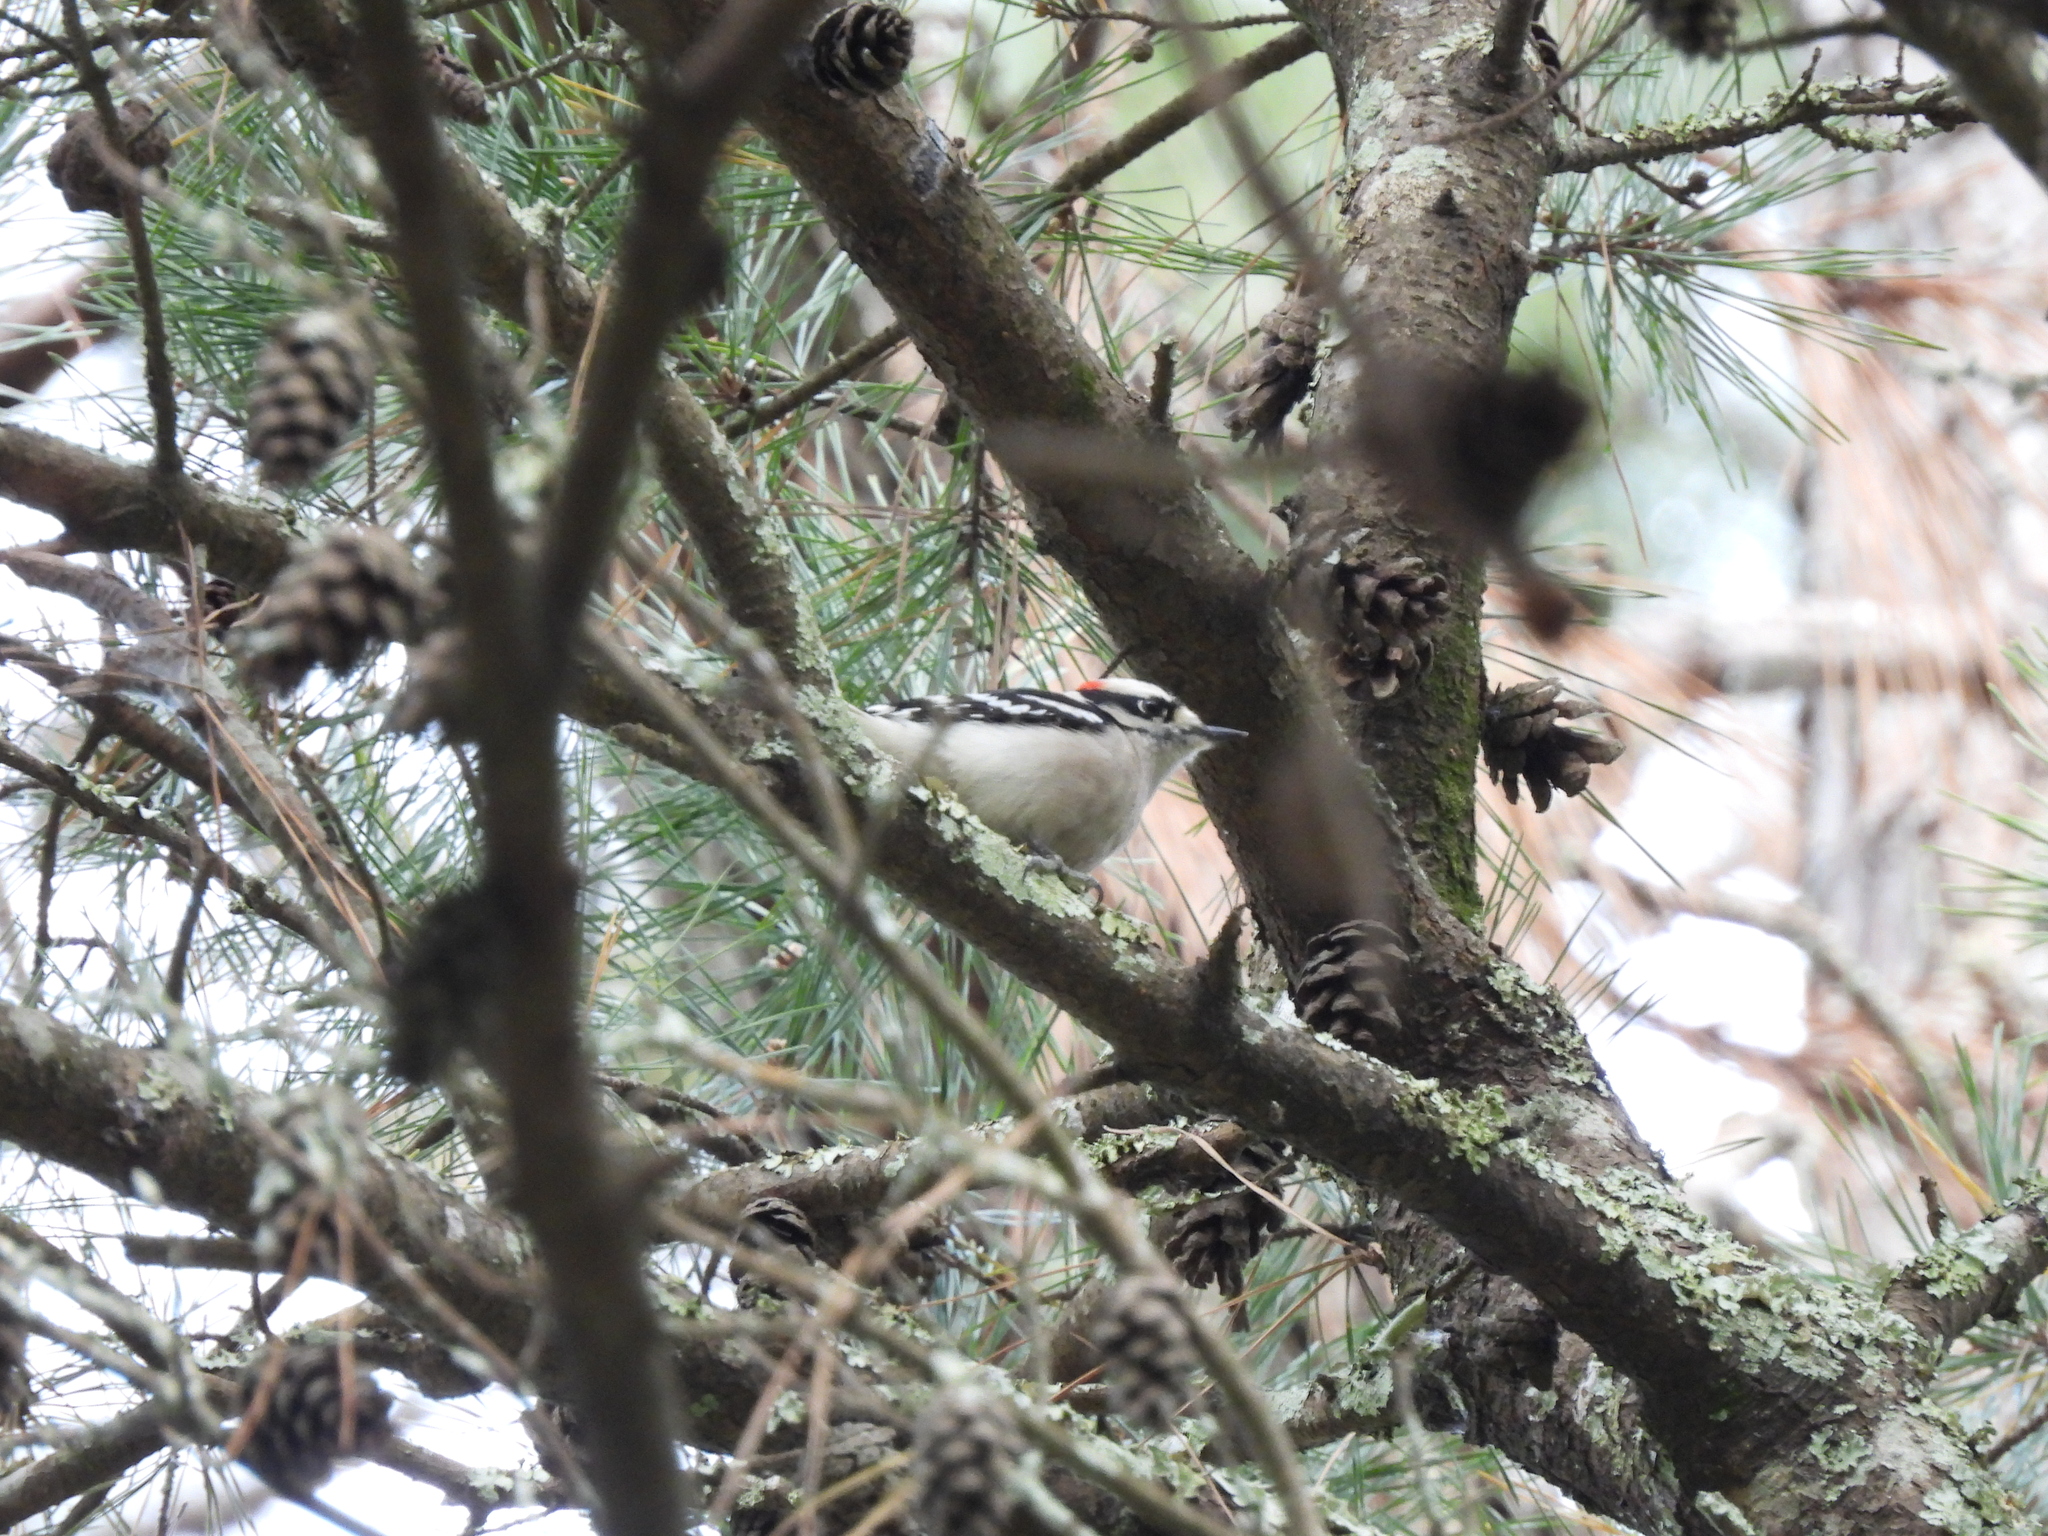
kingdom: Animalia
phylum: Chordata
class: Aves
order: Piciformes
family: Picidae
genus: Dryobates
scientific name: Dryobates pubescens
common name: Downy woodpecker
